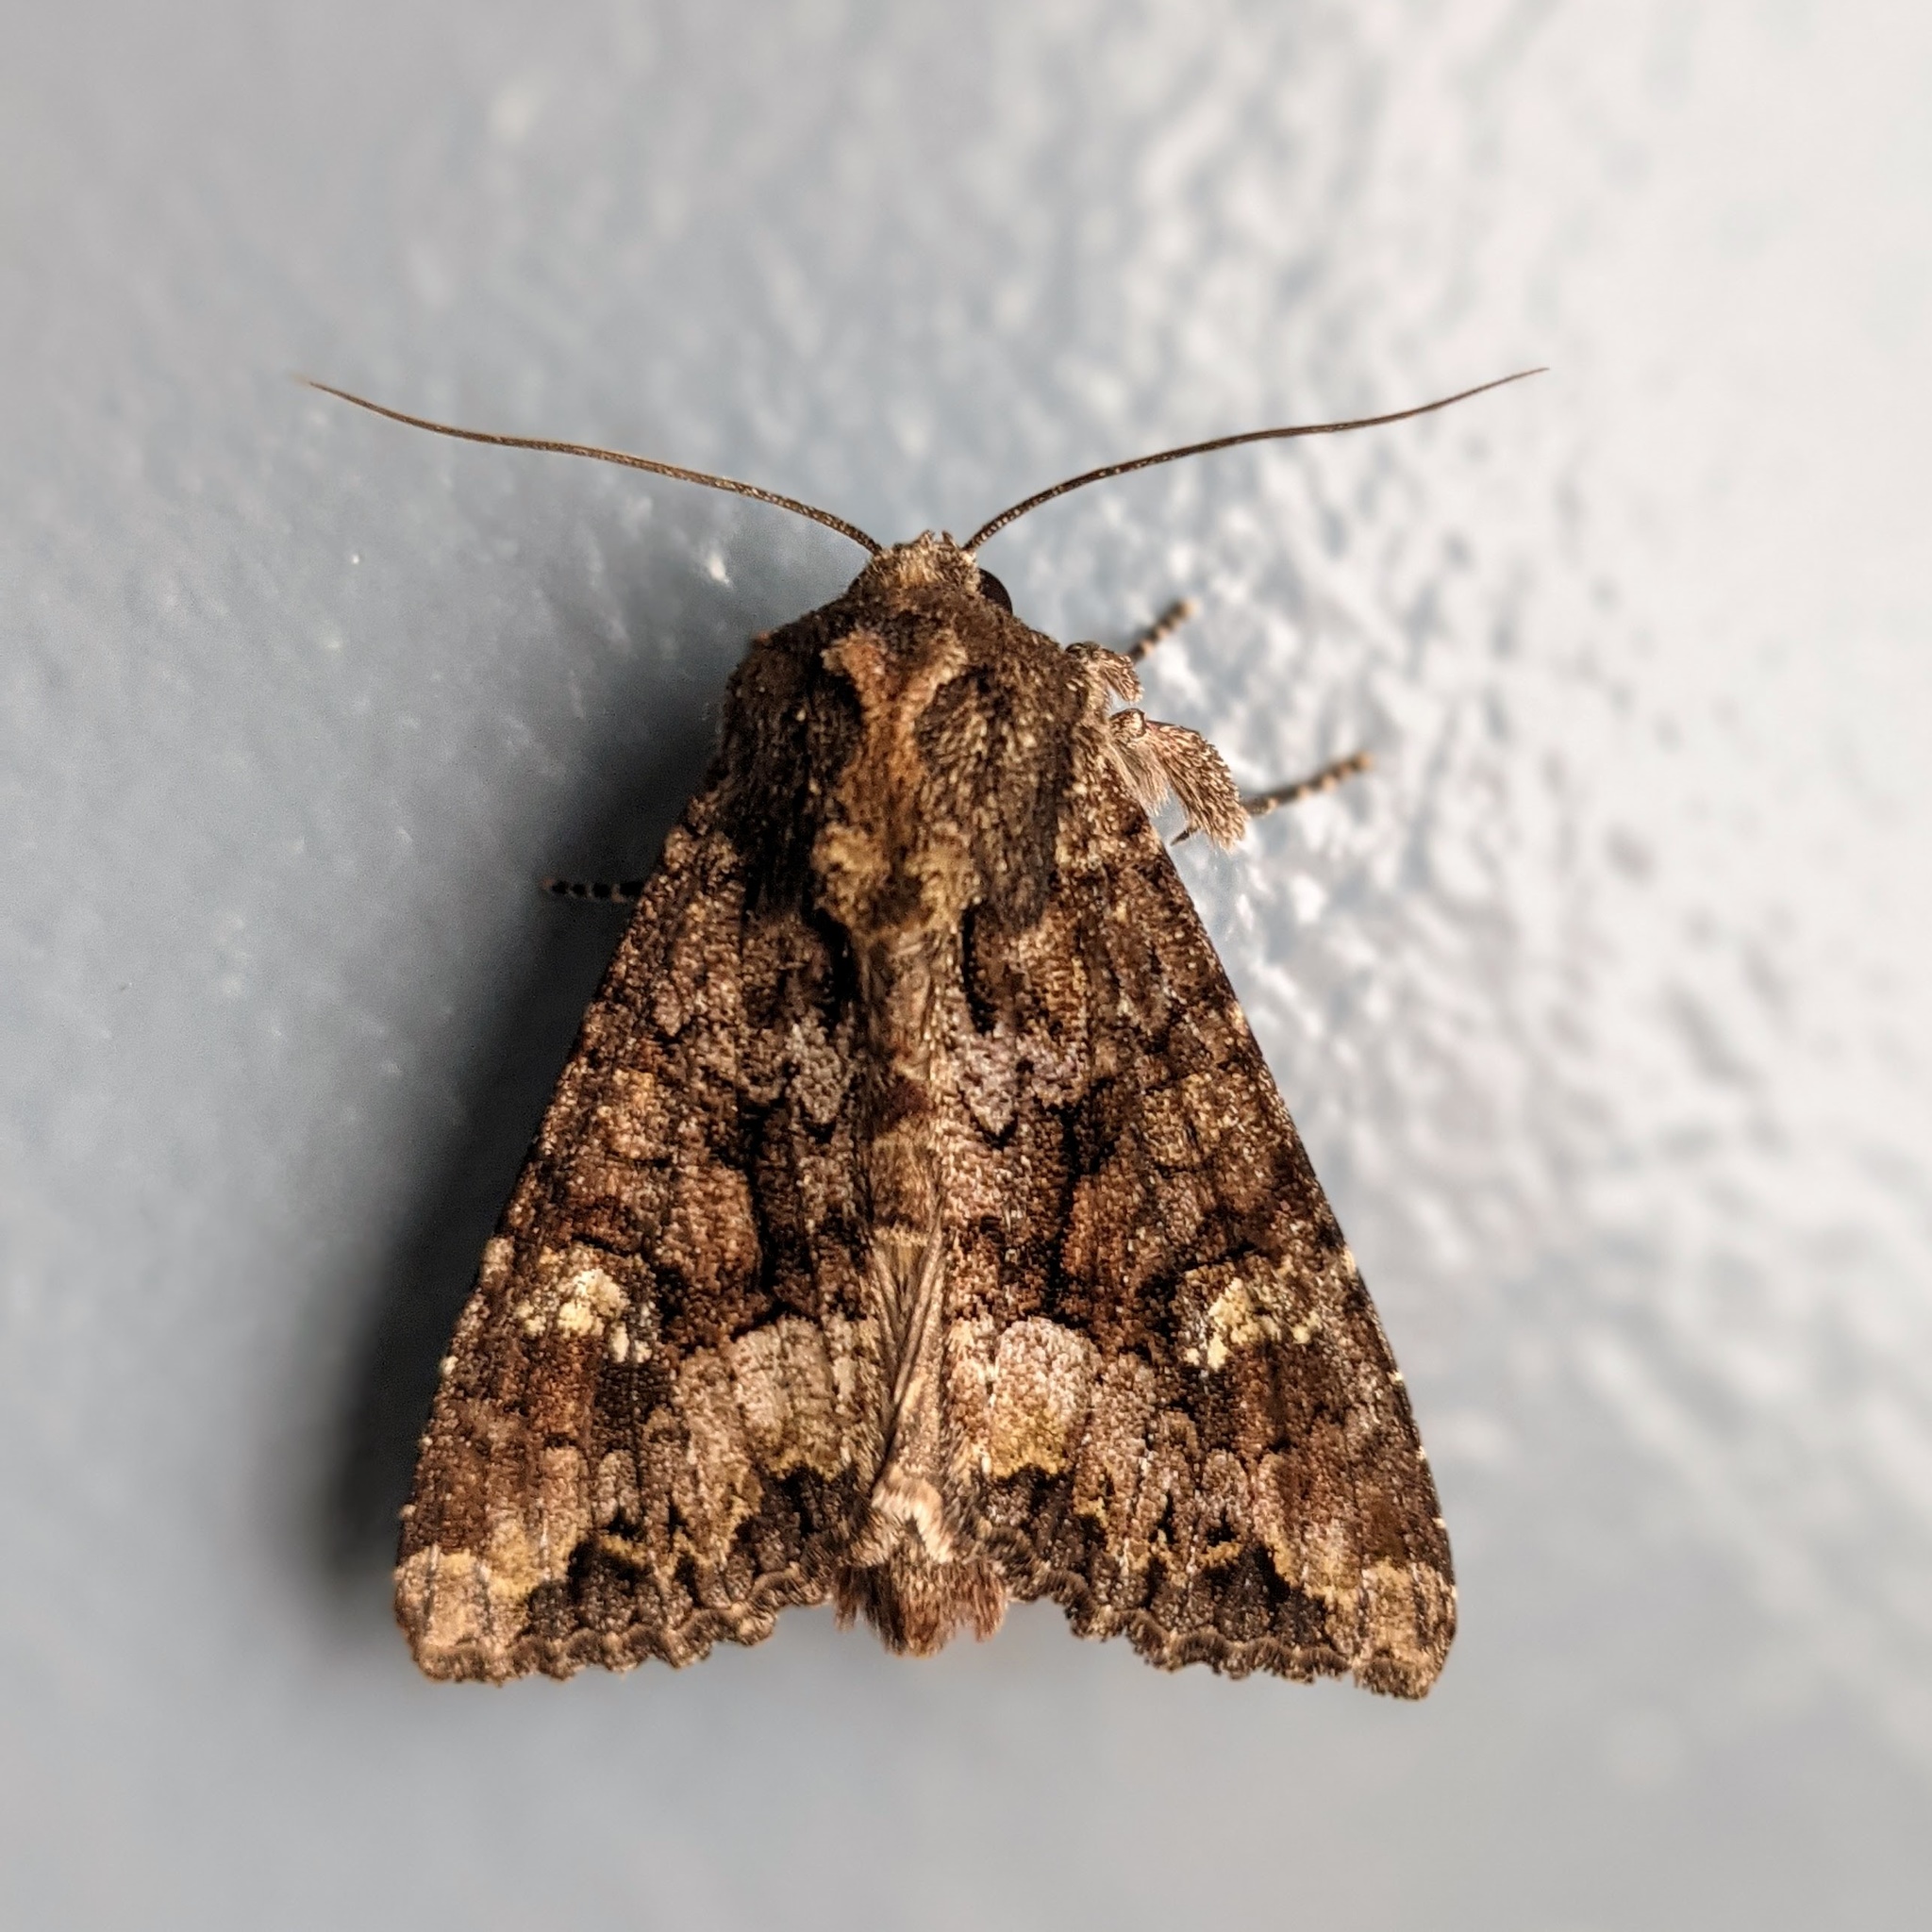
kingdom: Animalia
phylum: Arthropoda
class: Insecta
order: Lepidoptera
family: Noctuidae
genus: Apamea
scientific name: Apamea amputatrix
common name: Yellow-headed cutworm moth
